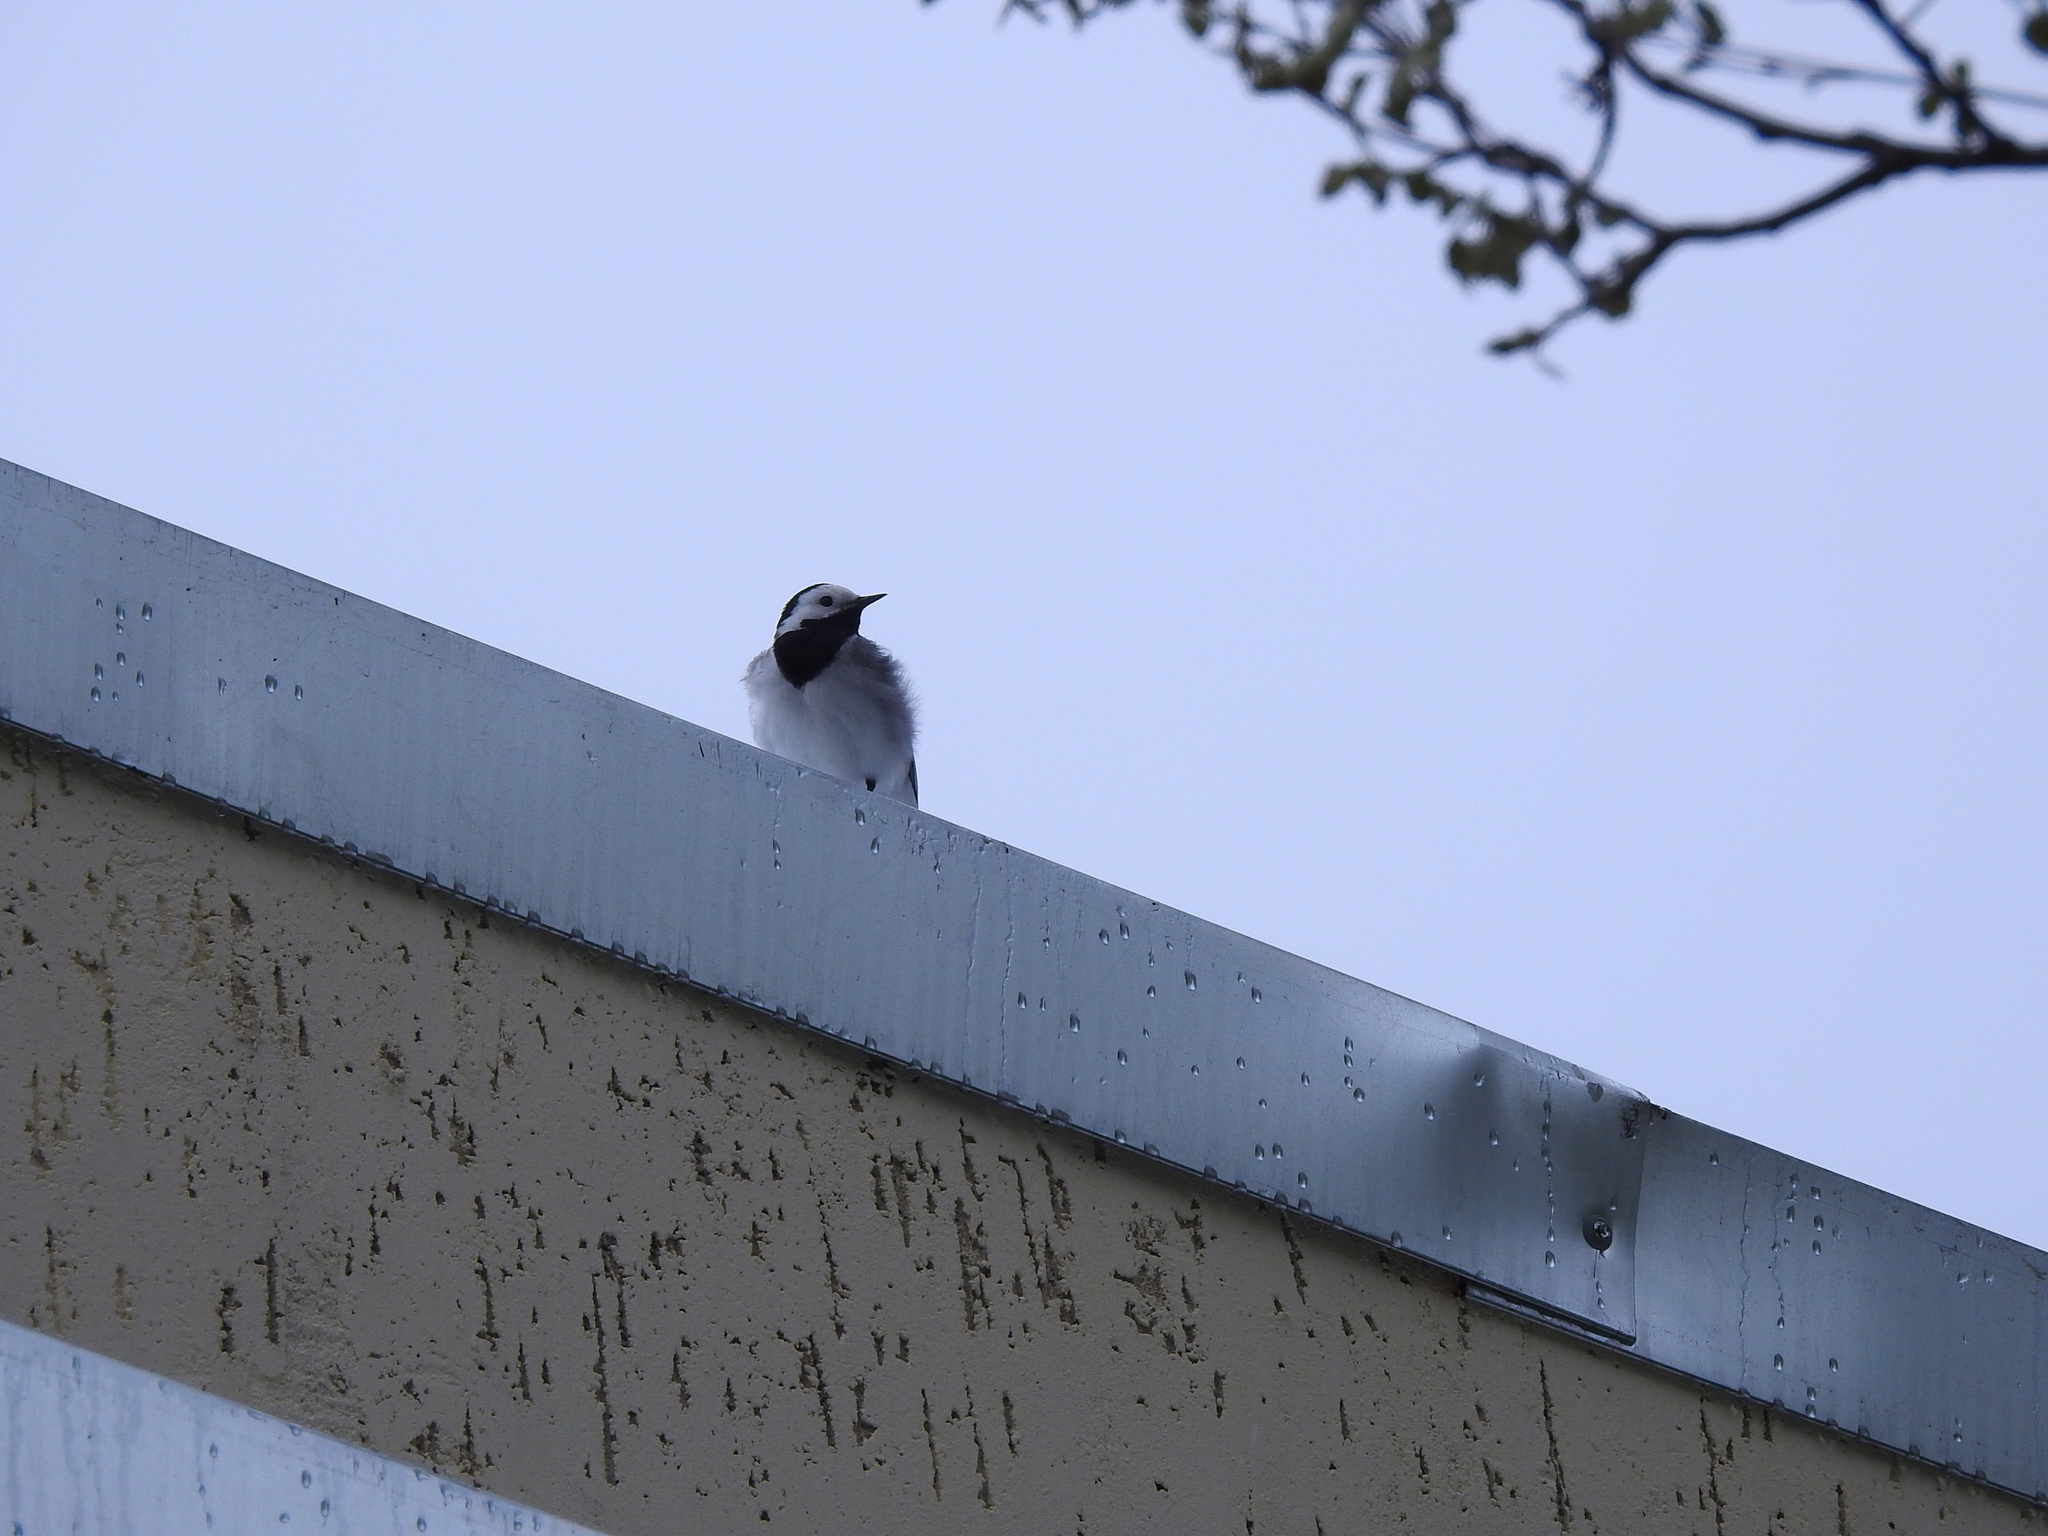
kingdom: Animalia
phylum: Chordata
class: Aves
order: Passeriformes
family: Motacillidae
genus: Motacilla
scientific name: Motacilla alba
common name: White wagtail
